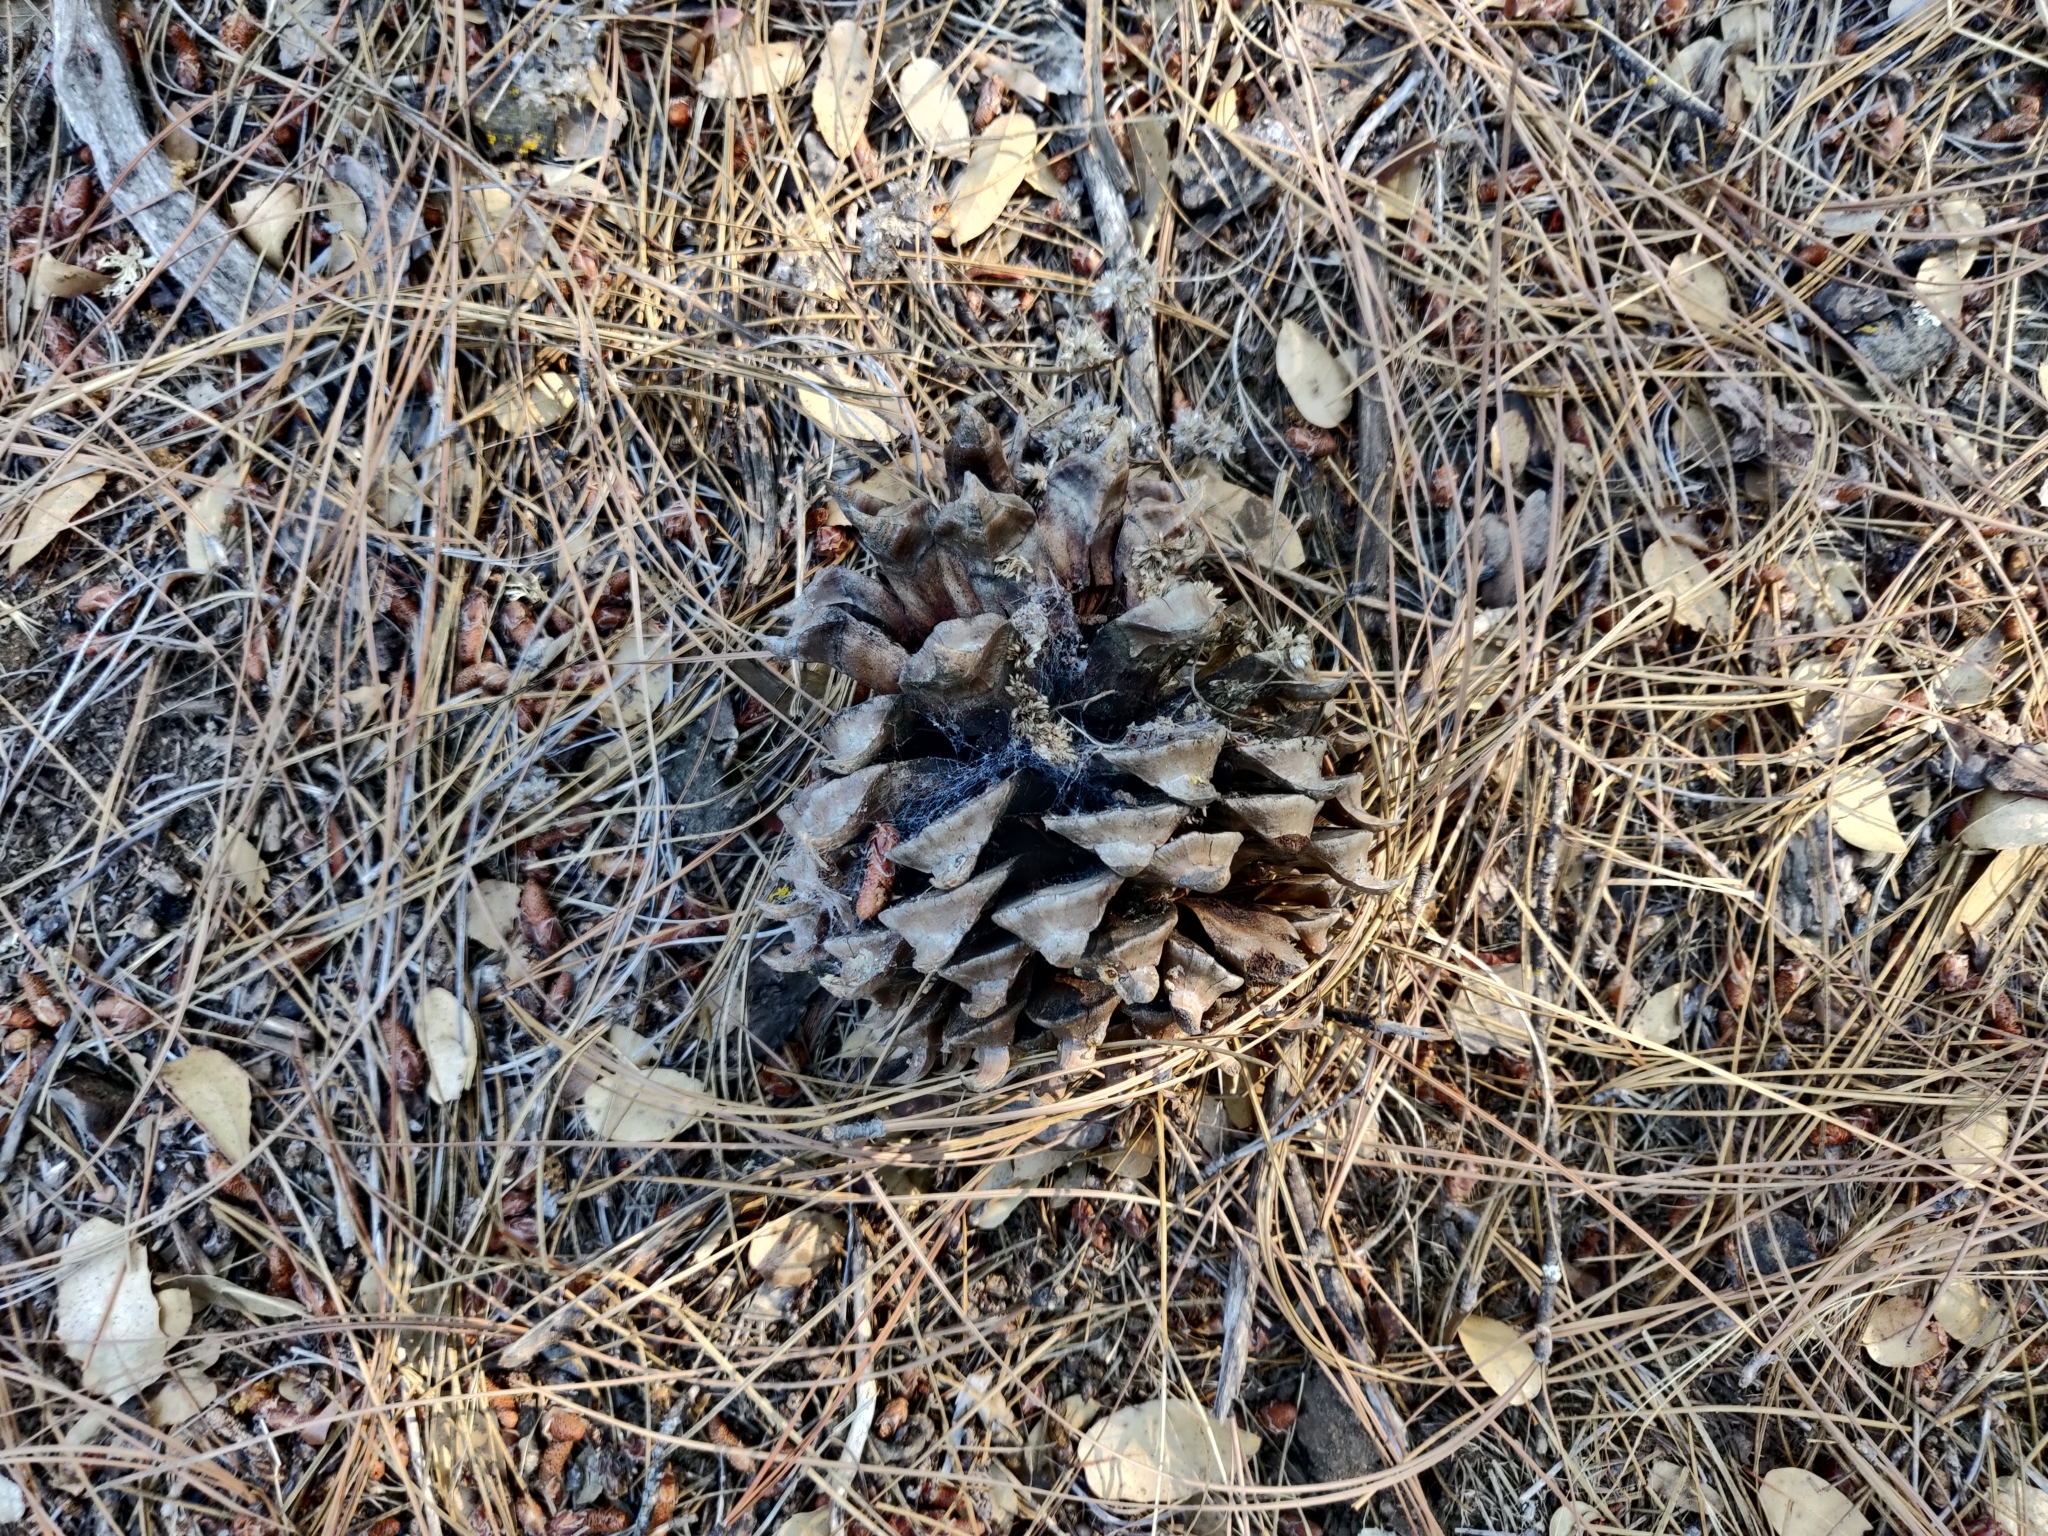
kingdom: Plantae
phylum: Tracheophyta
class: Pinopsida
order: Pinales
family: Pinaceae
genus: Pinus
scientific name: Pinus sabiniana
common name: Bull pine
